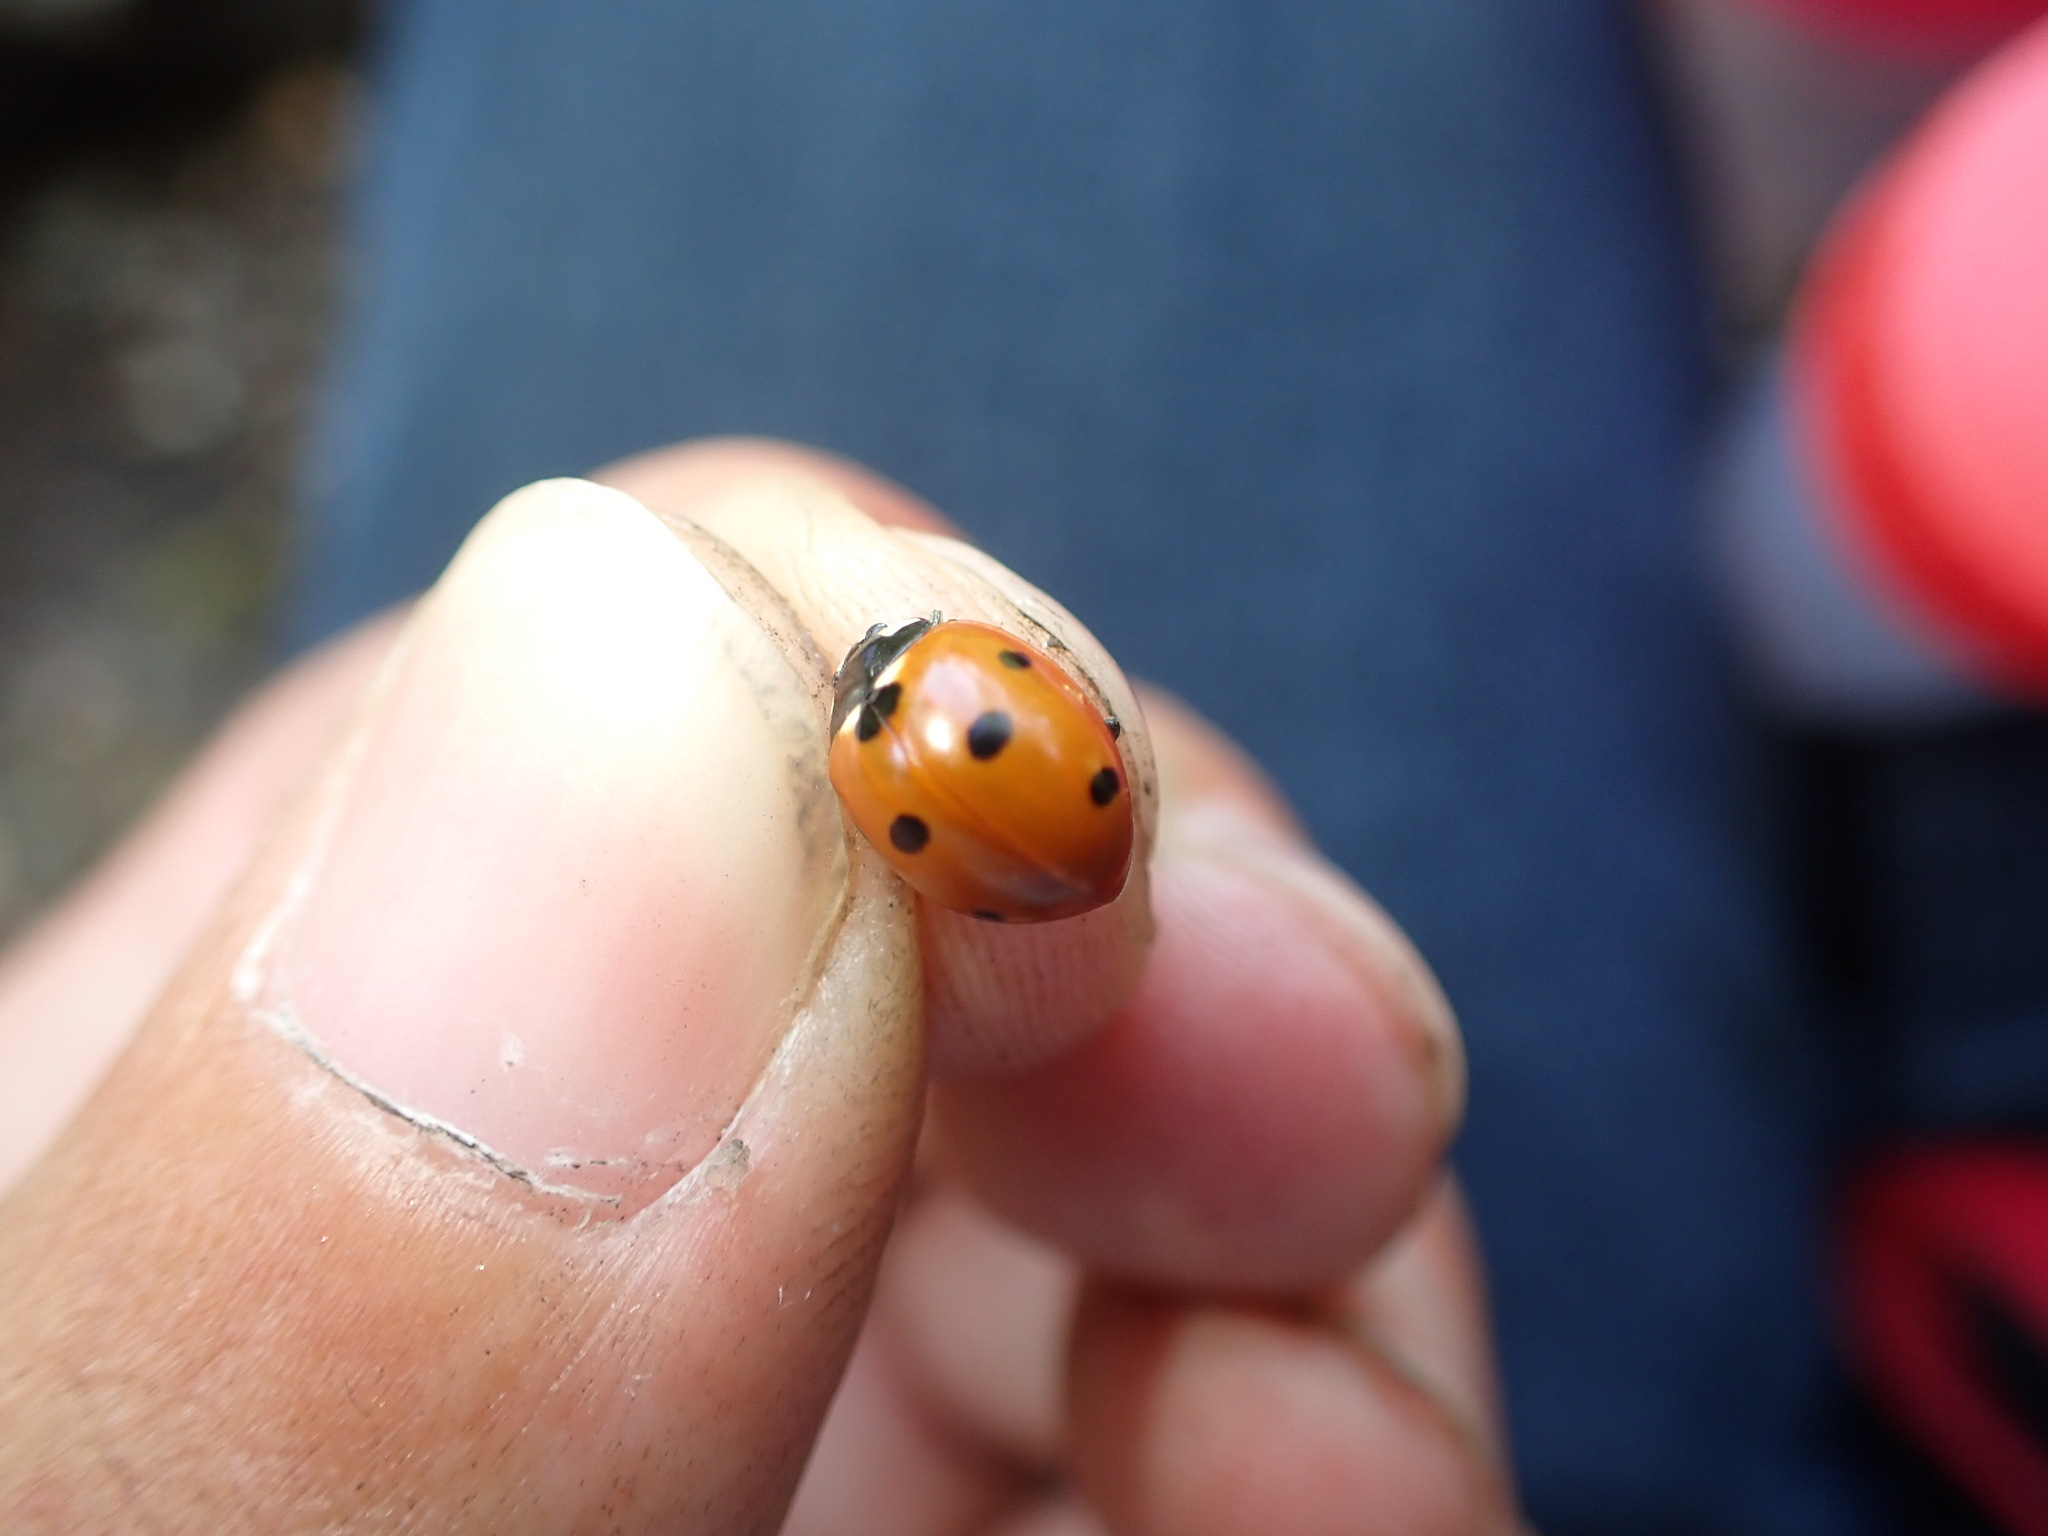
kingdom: Animalia
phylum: Arthropoda
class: Insecta
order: Coleoptera
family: Coccinellidae
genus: Coccinella
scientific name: Coccinella septempunctata
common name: Sevenspotted lady beetle
